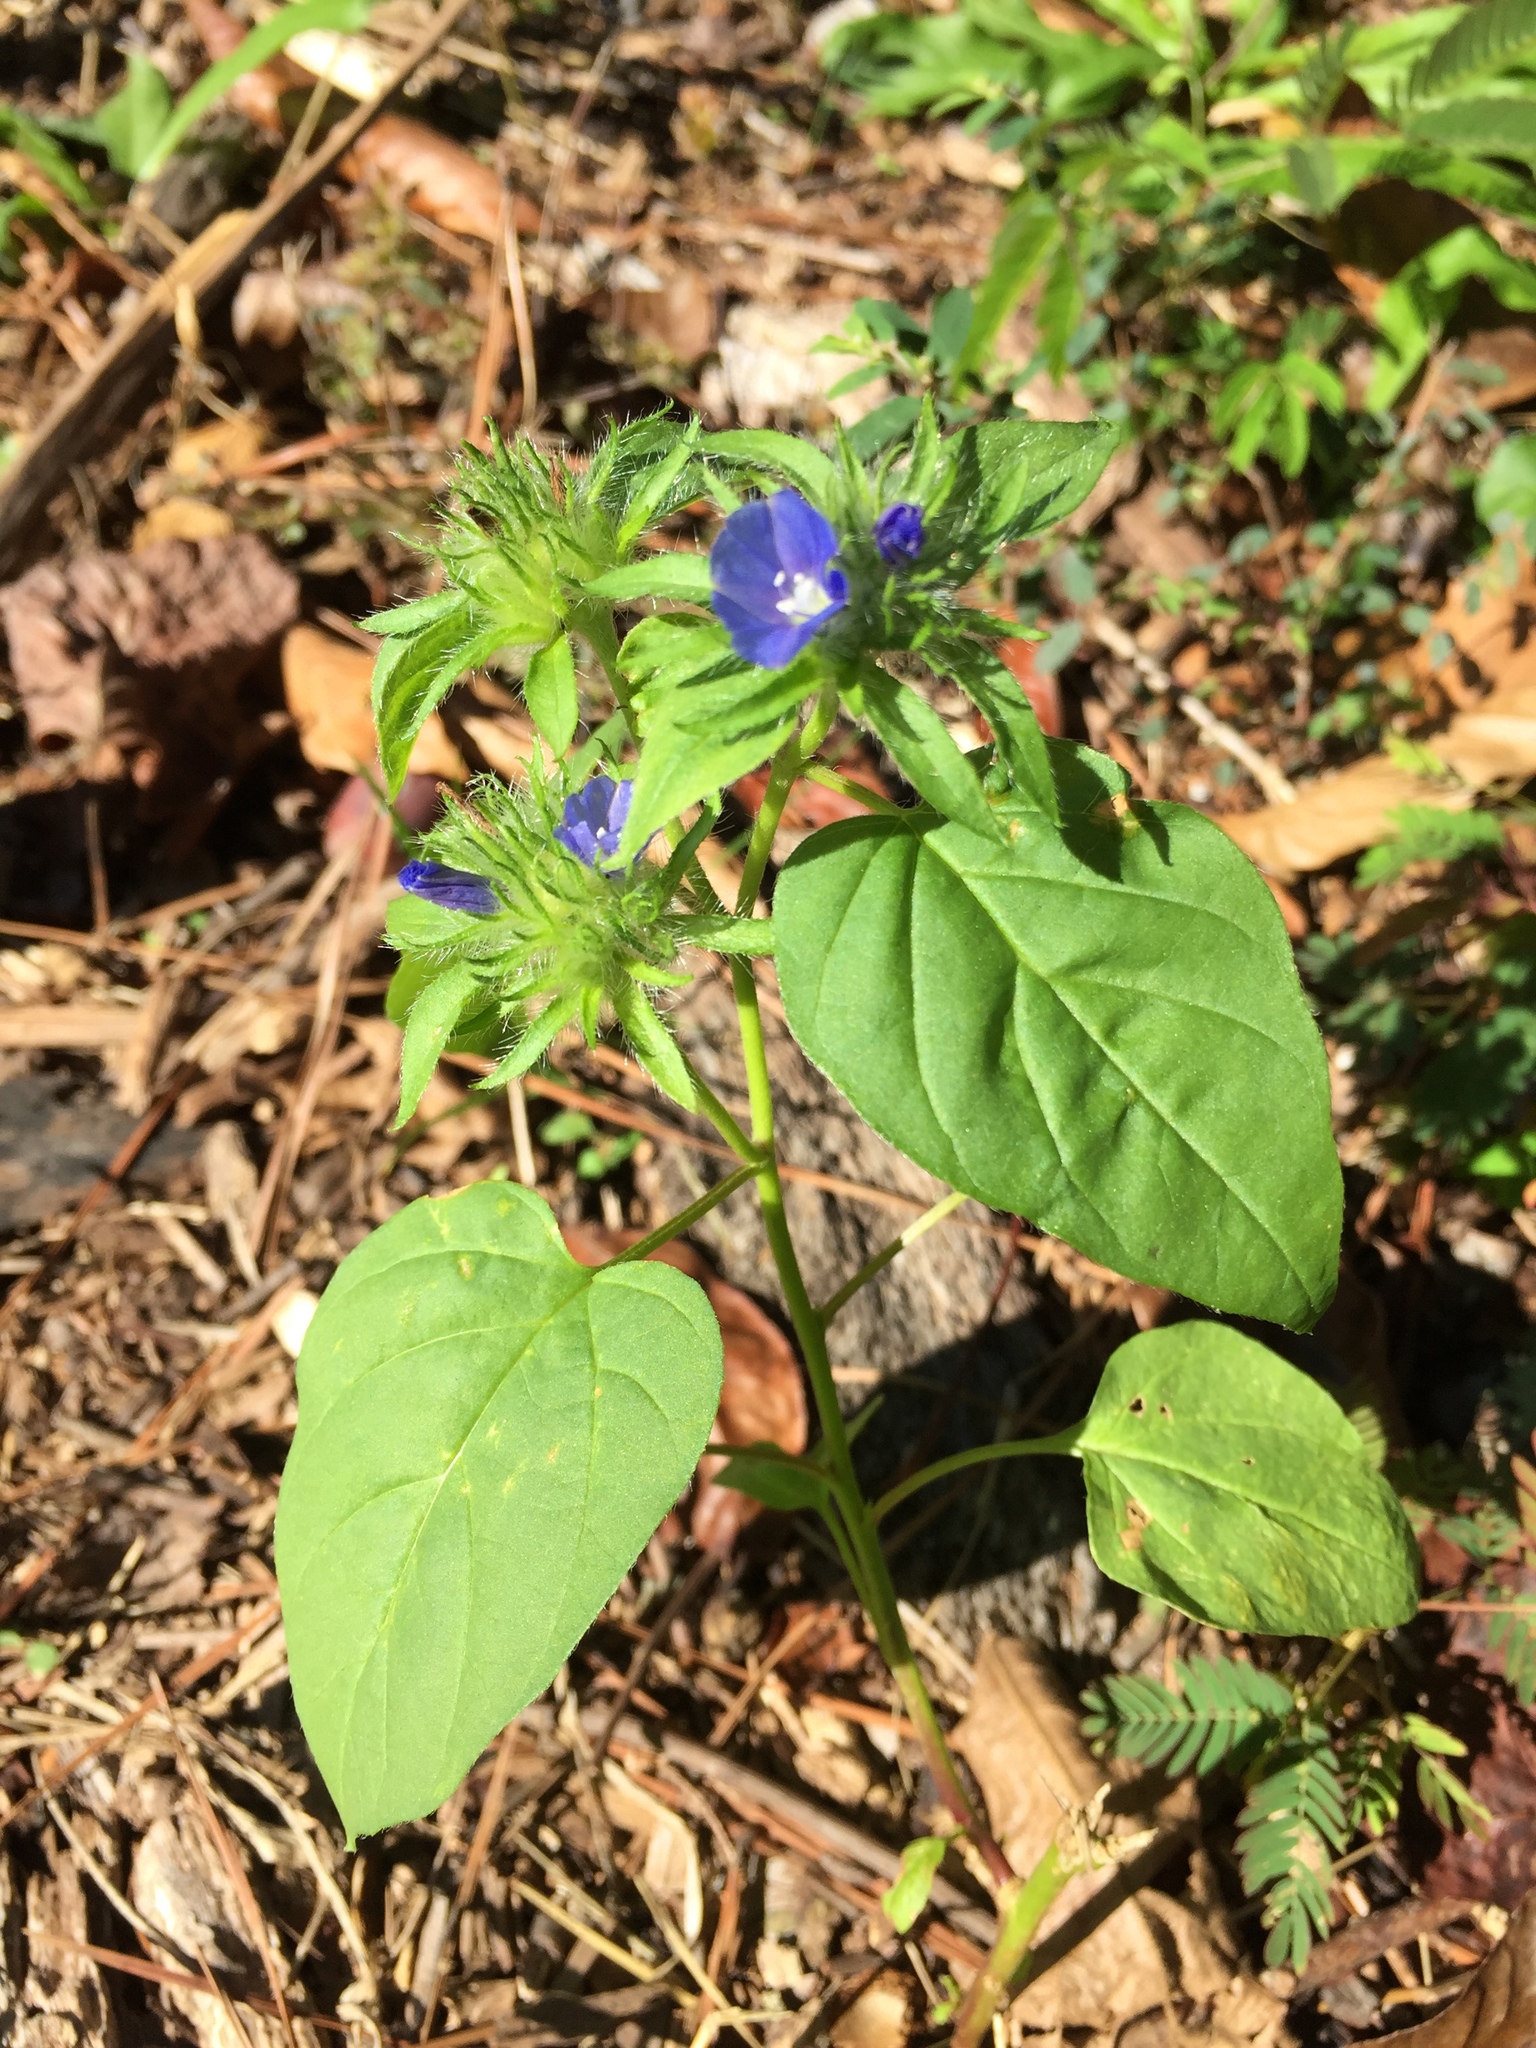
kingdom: Plantae
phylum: Tracheophyta
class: Magnoliopsida
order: Solanales
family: Convolvulaceae
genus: Jacquemontia
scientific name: Jacquemontia tamnifolia
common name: Hairy clustervine
